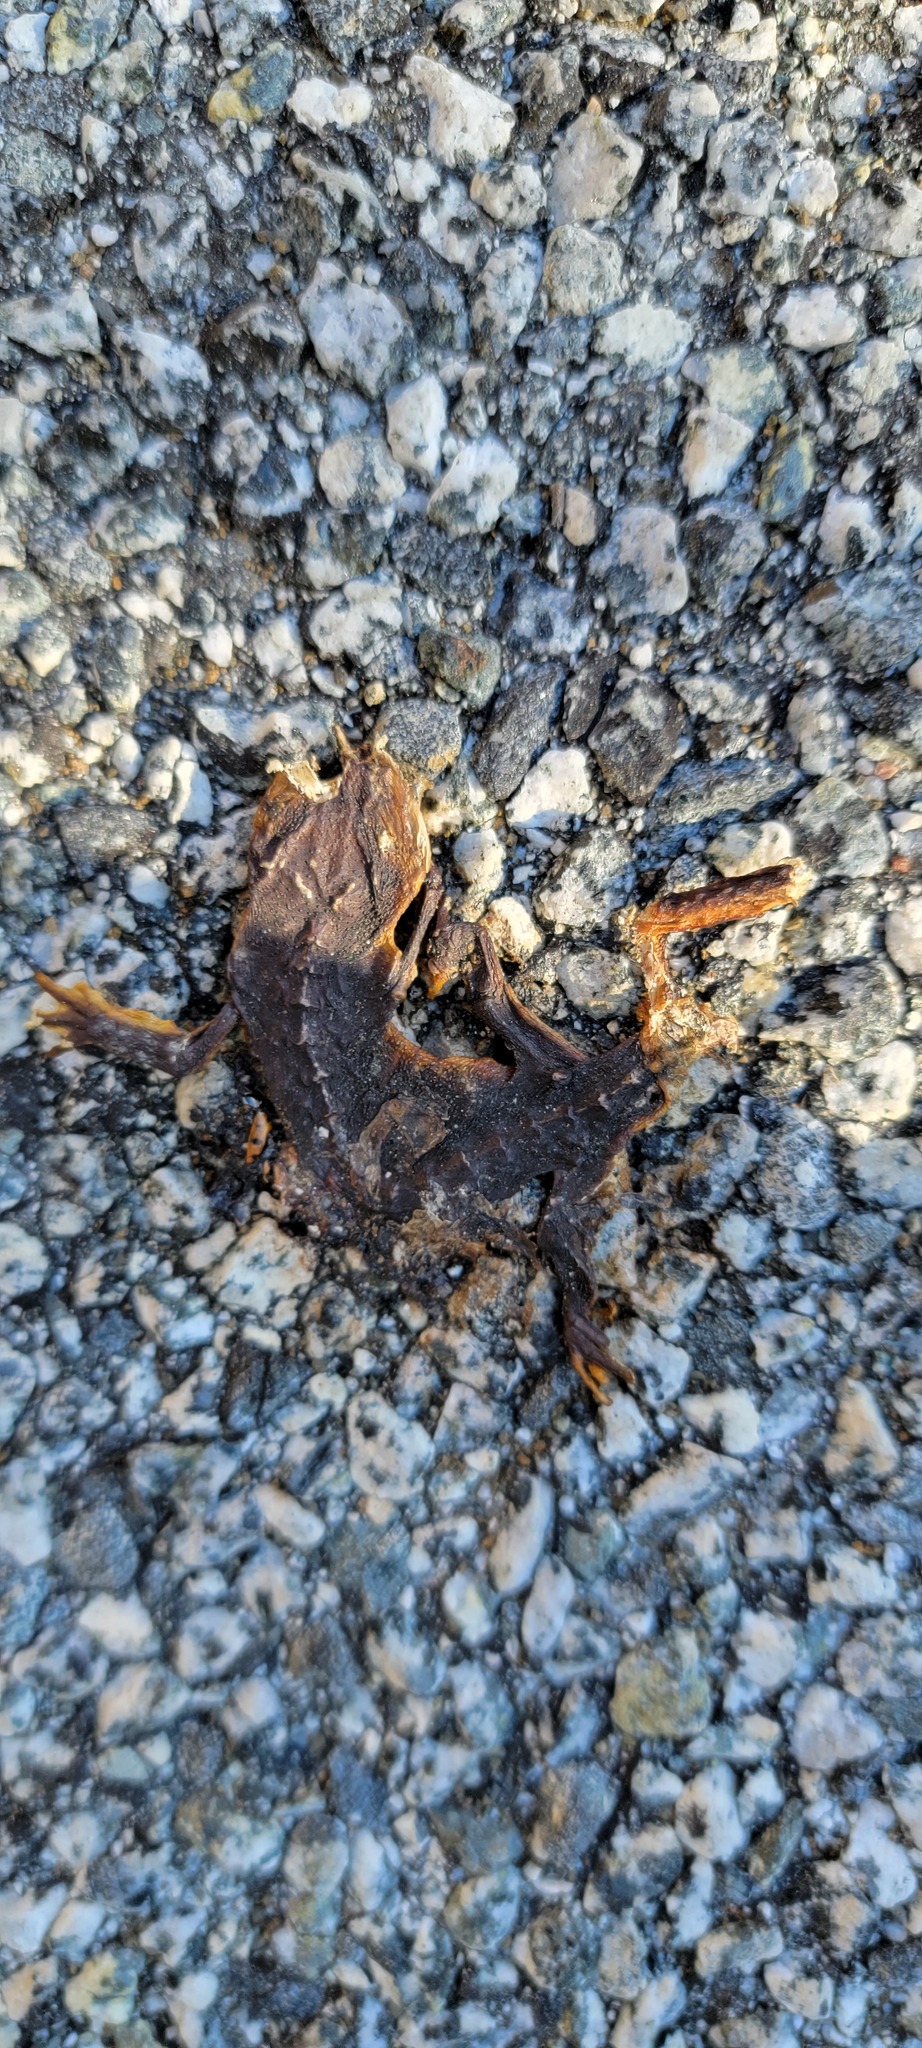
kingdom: Animalia
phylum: Chordata
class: Amphibia
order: Caudata
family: Salamandridae
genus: Taricha
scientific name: Taricha
